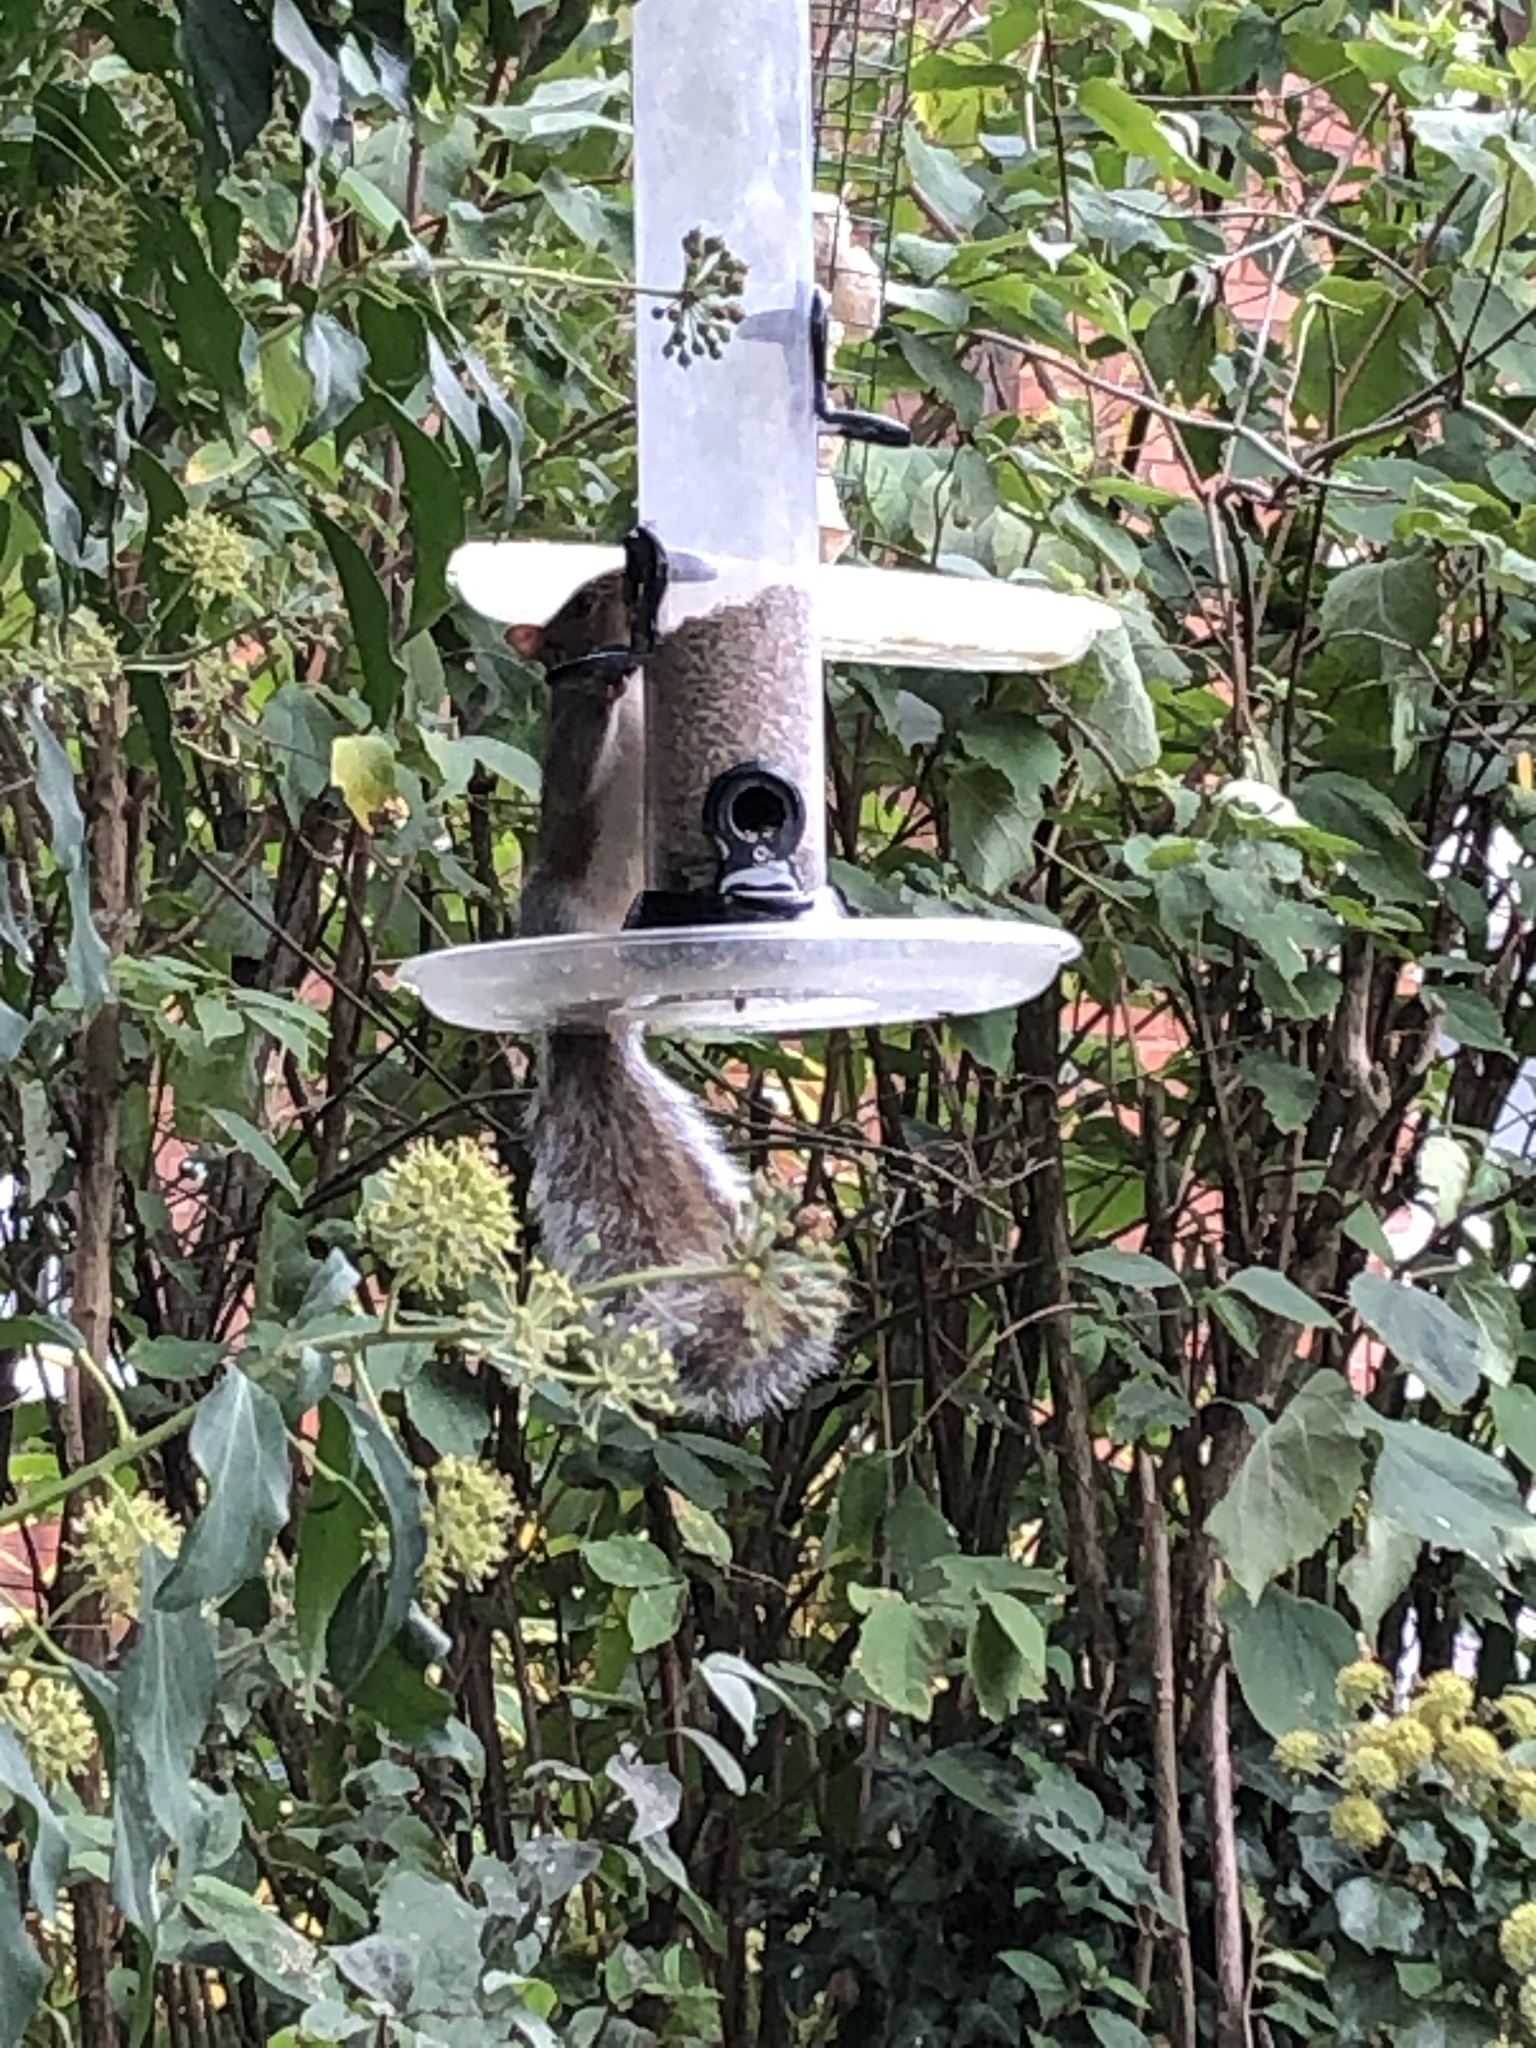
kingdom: Animalia
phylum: Chordata
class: Mammalia
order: Rodentia
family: Sciuridae
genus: Sciurus
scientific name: Sciurus carolinensis
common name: Eastern gray squirrel
